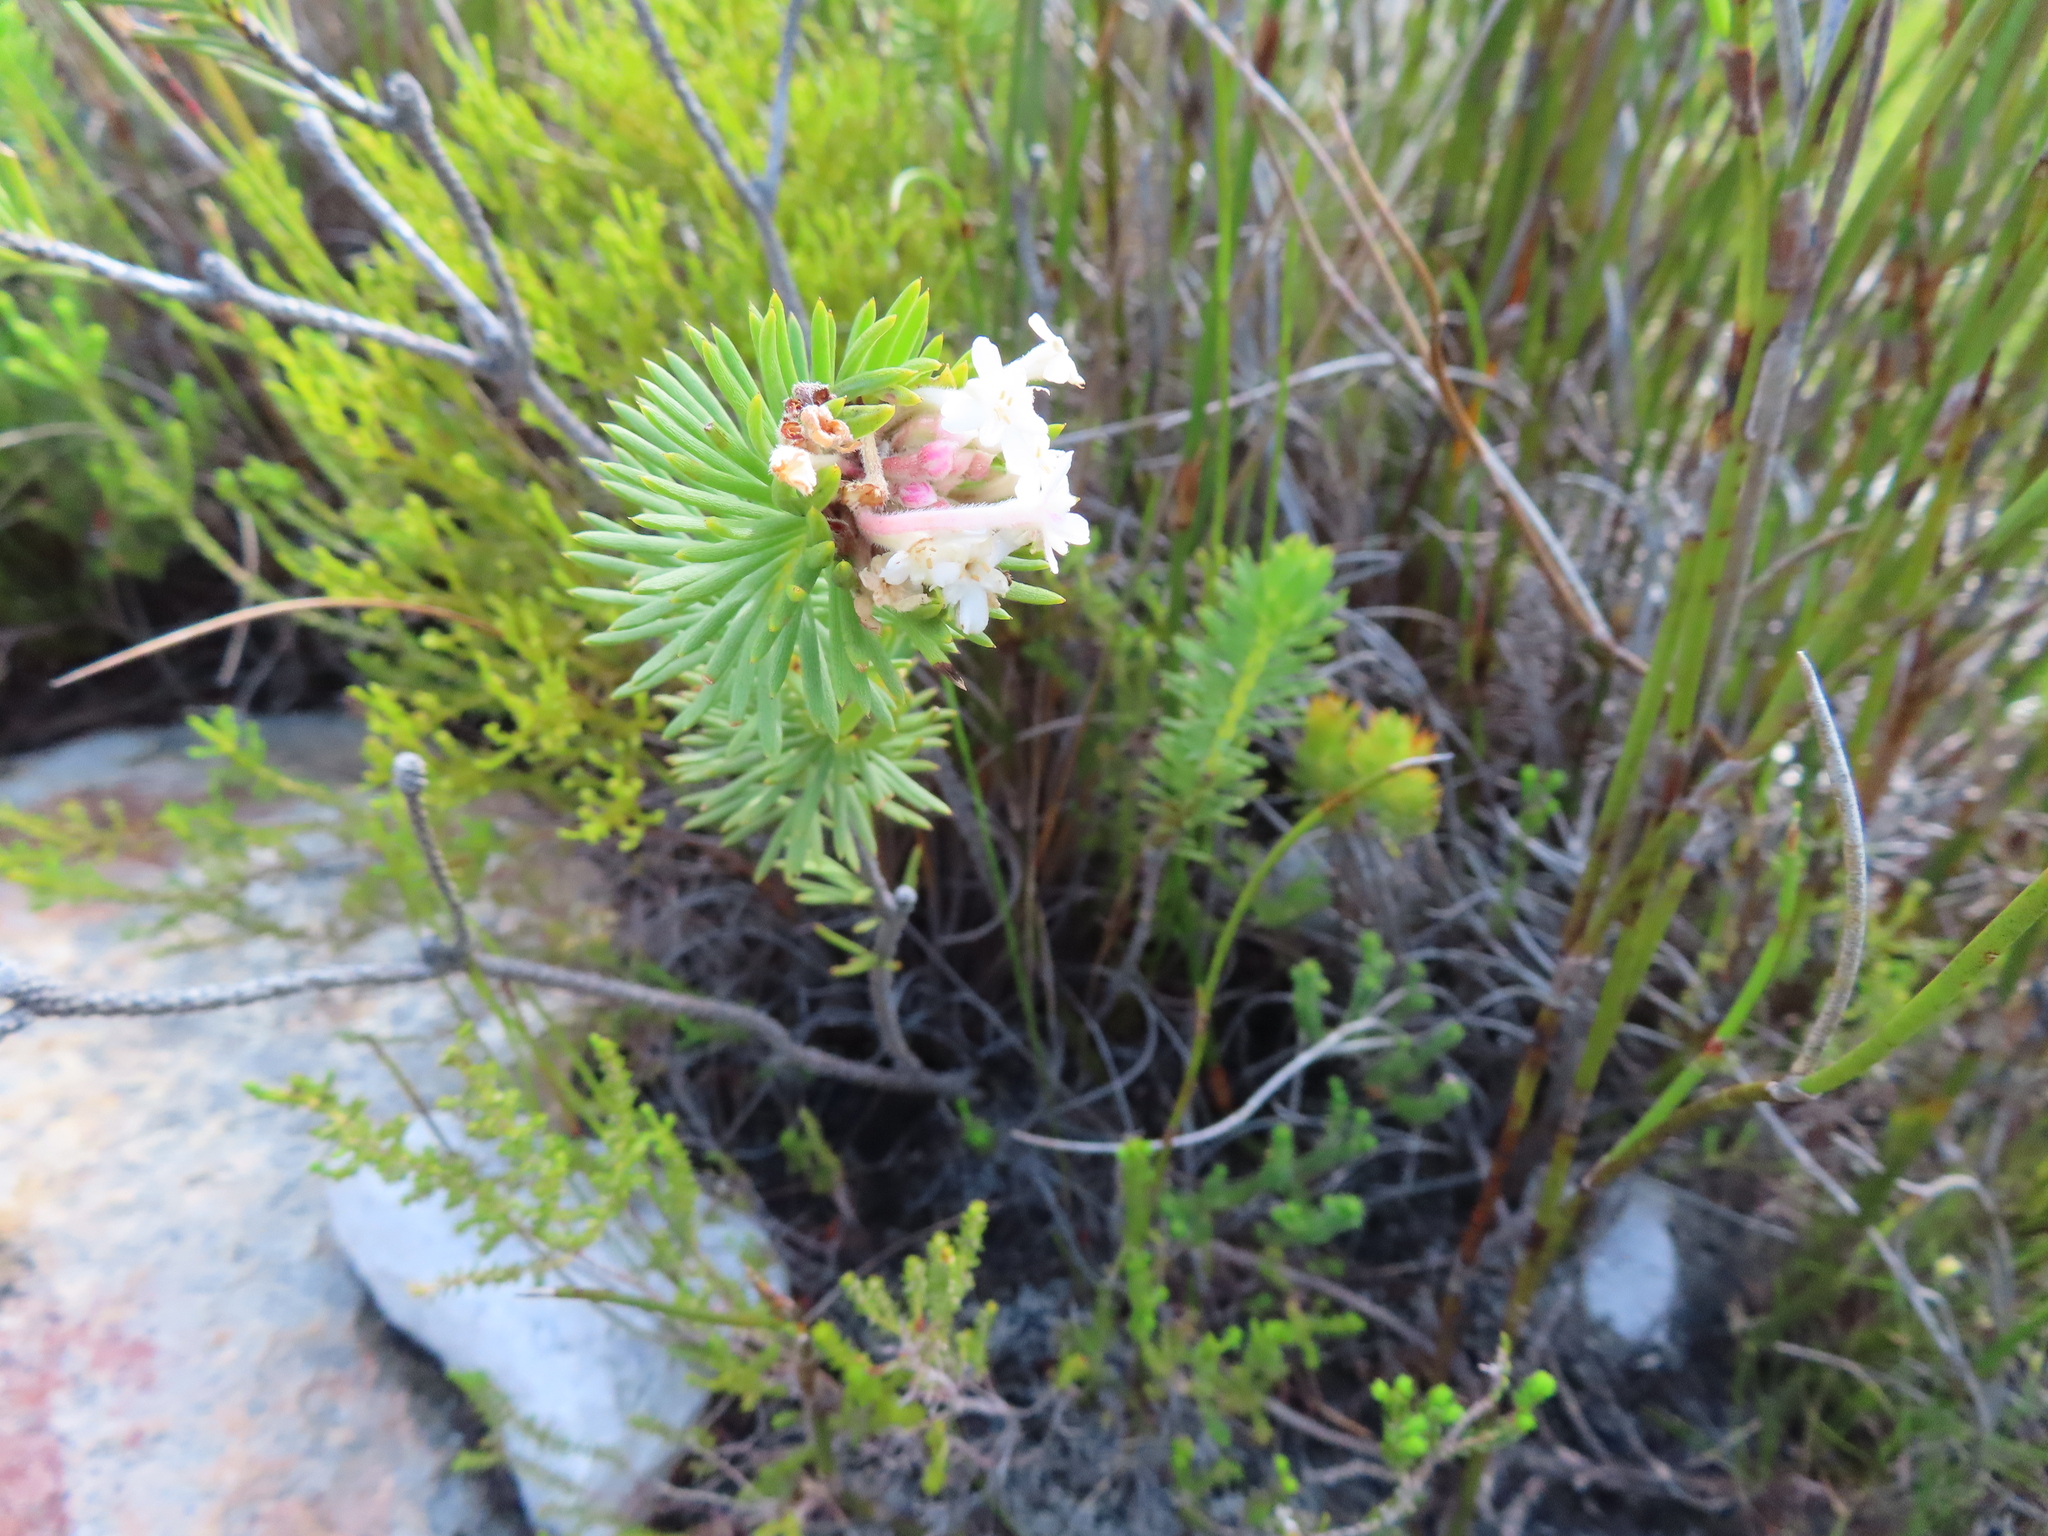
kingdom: Plantae
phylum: Tracheophyta
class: Magnoliopsida
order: Malvales
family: Thymelaeaceae
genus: Gnidia
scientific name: Gnidia pinifolia
